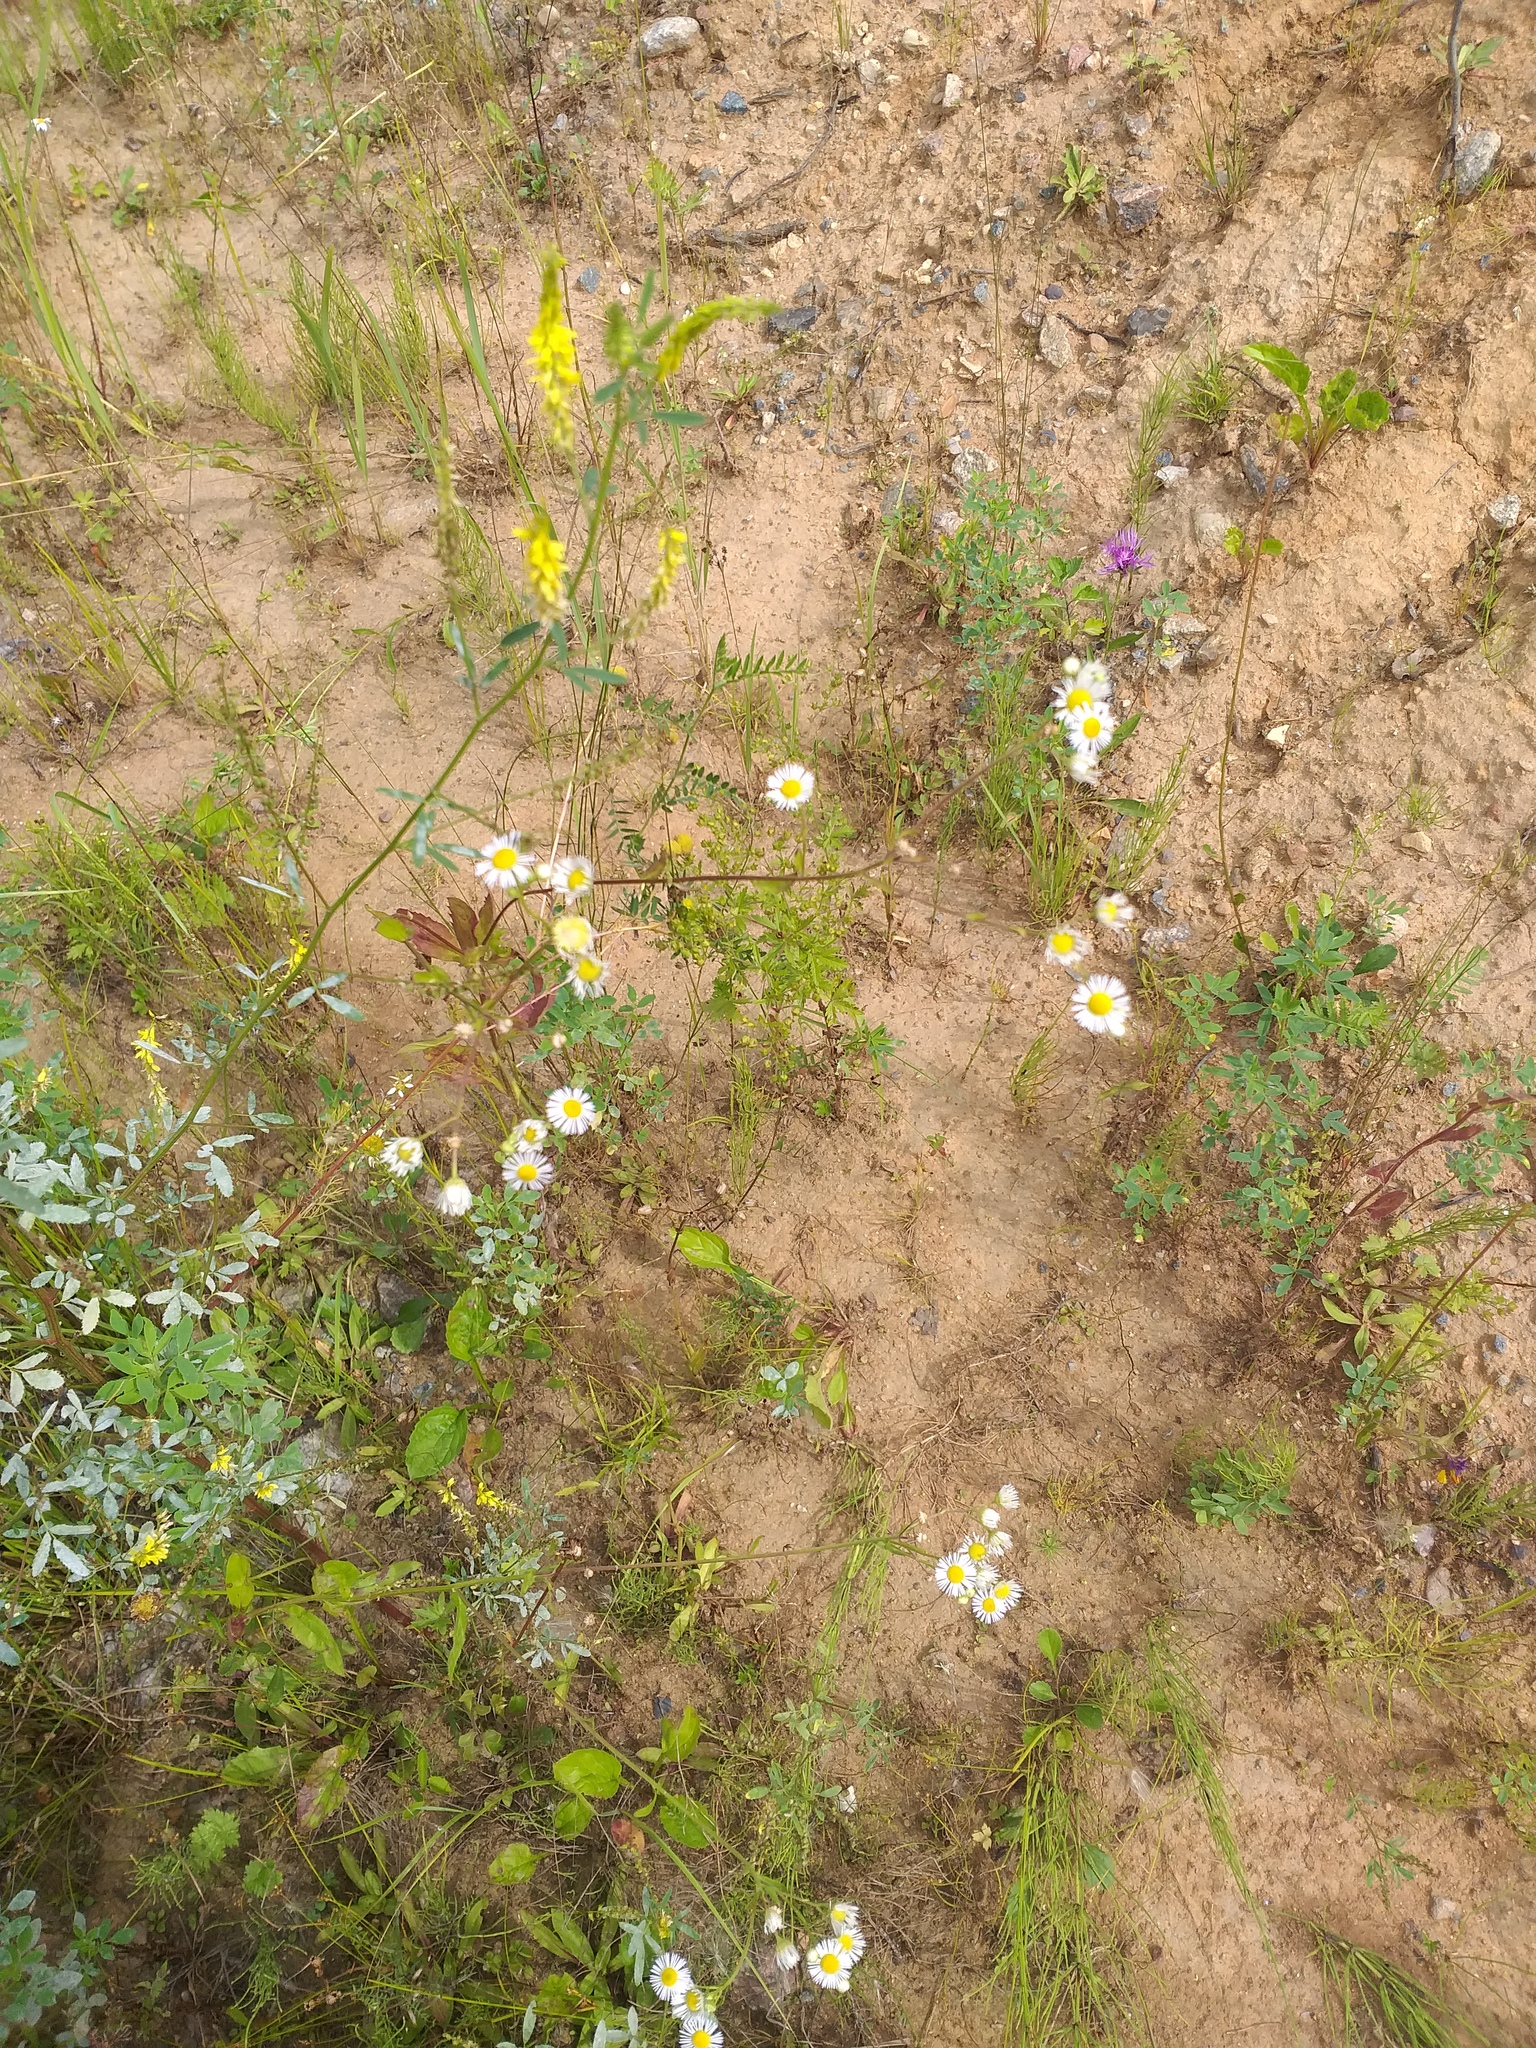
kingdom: Plantae
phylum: Tracheophyta
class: Magnoliopsida
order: Asterales
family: Asteraceae
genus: Erigeron
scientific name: Erigeron annuus
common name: Tall fleabane
